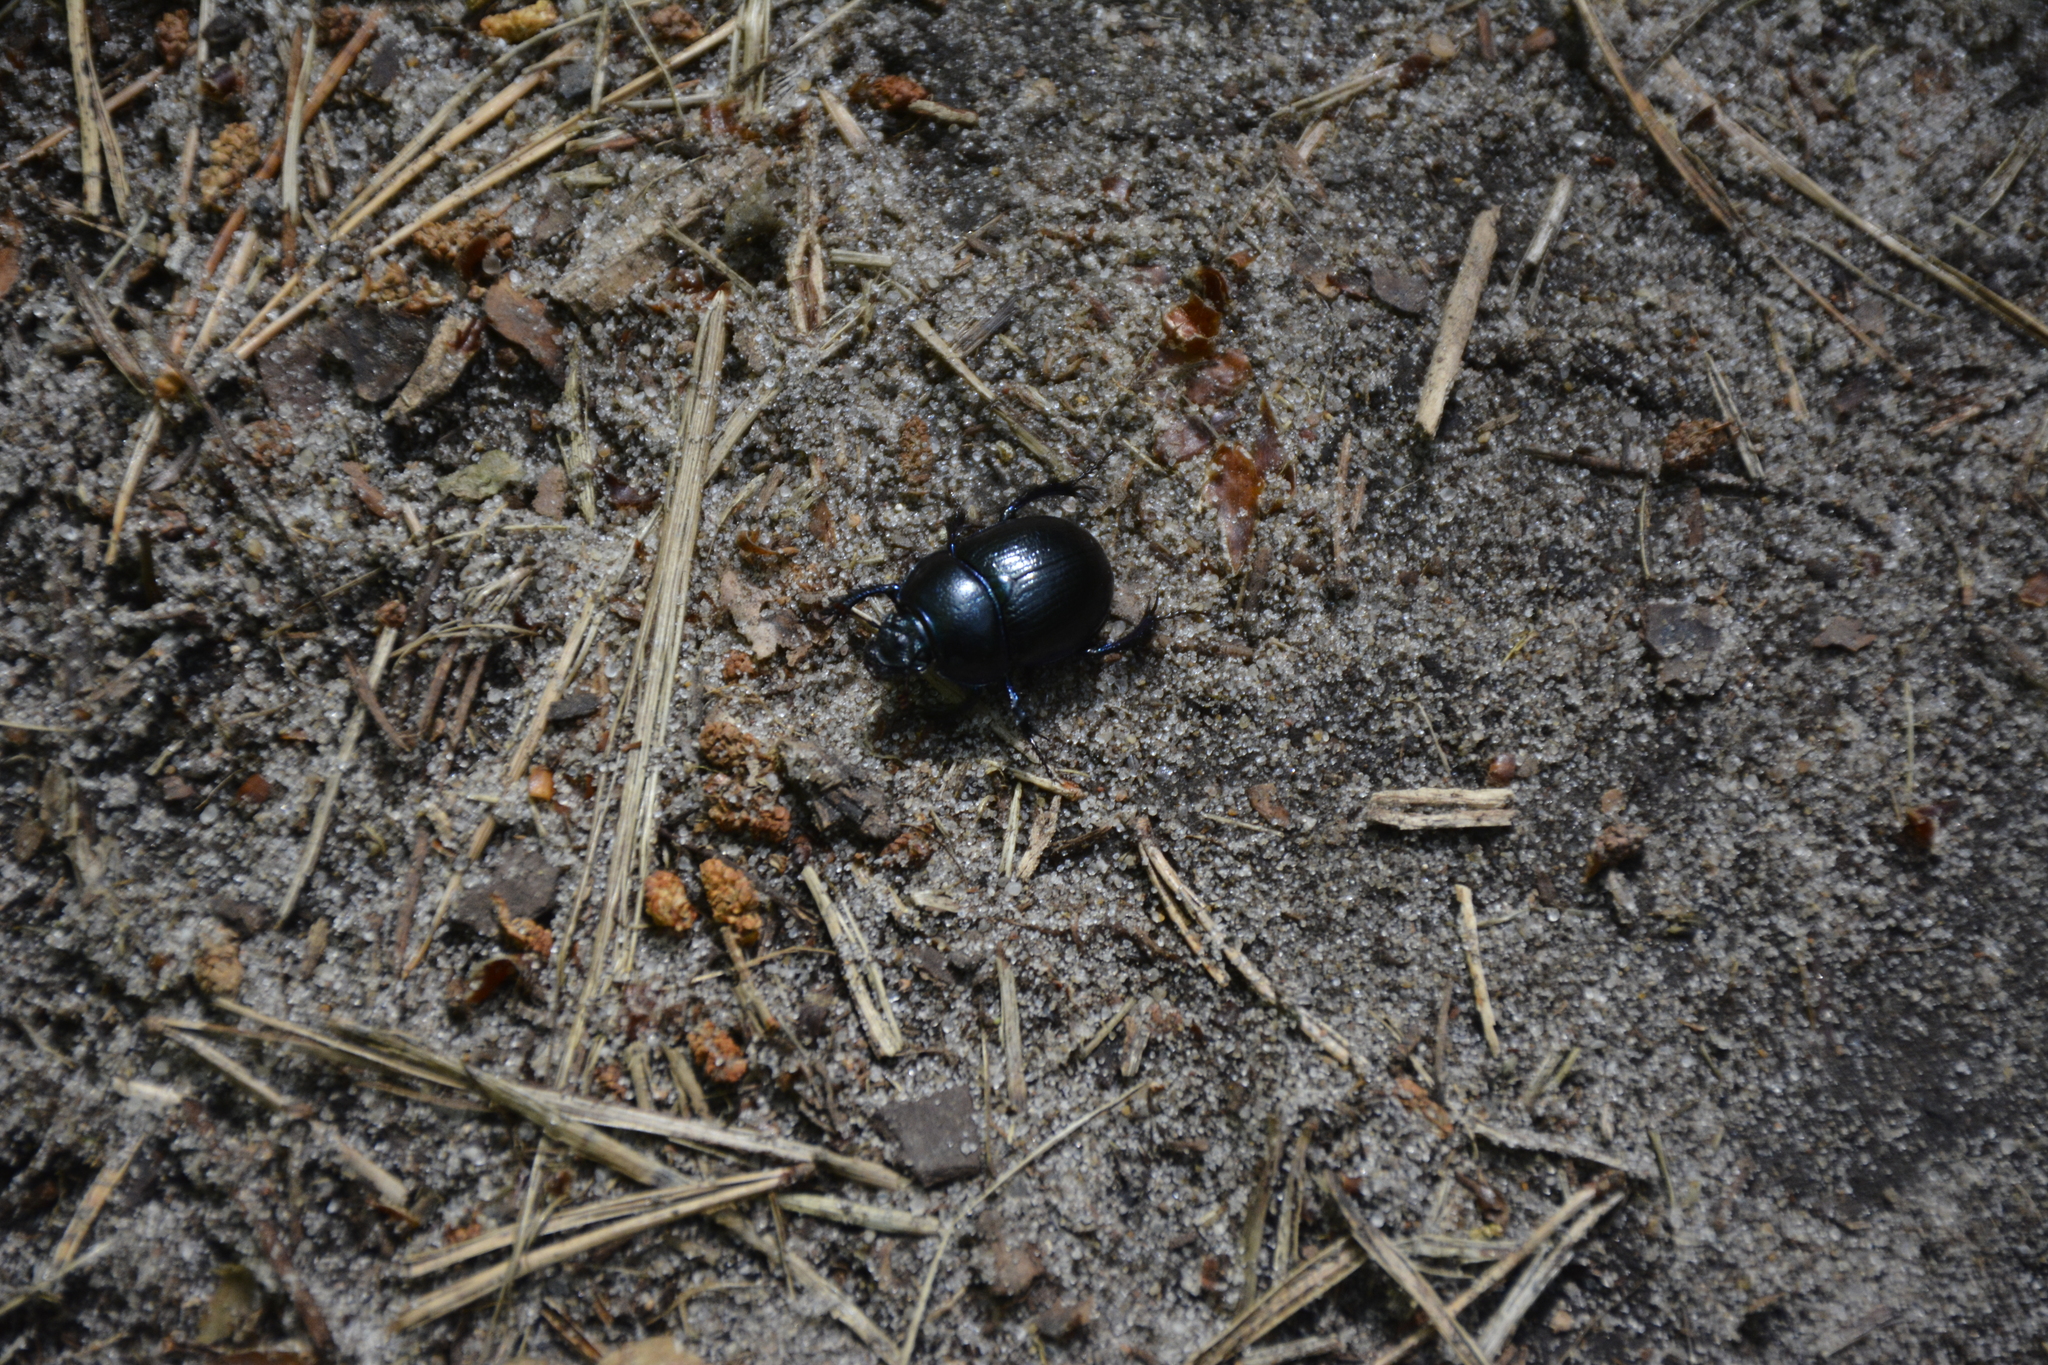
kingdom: Animalia
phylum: Arthropoda
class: Insecta
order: Coleoptera
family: Geotrupidae
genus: Anoplotrupes
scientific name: Anoplotrupes stercorosus
